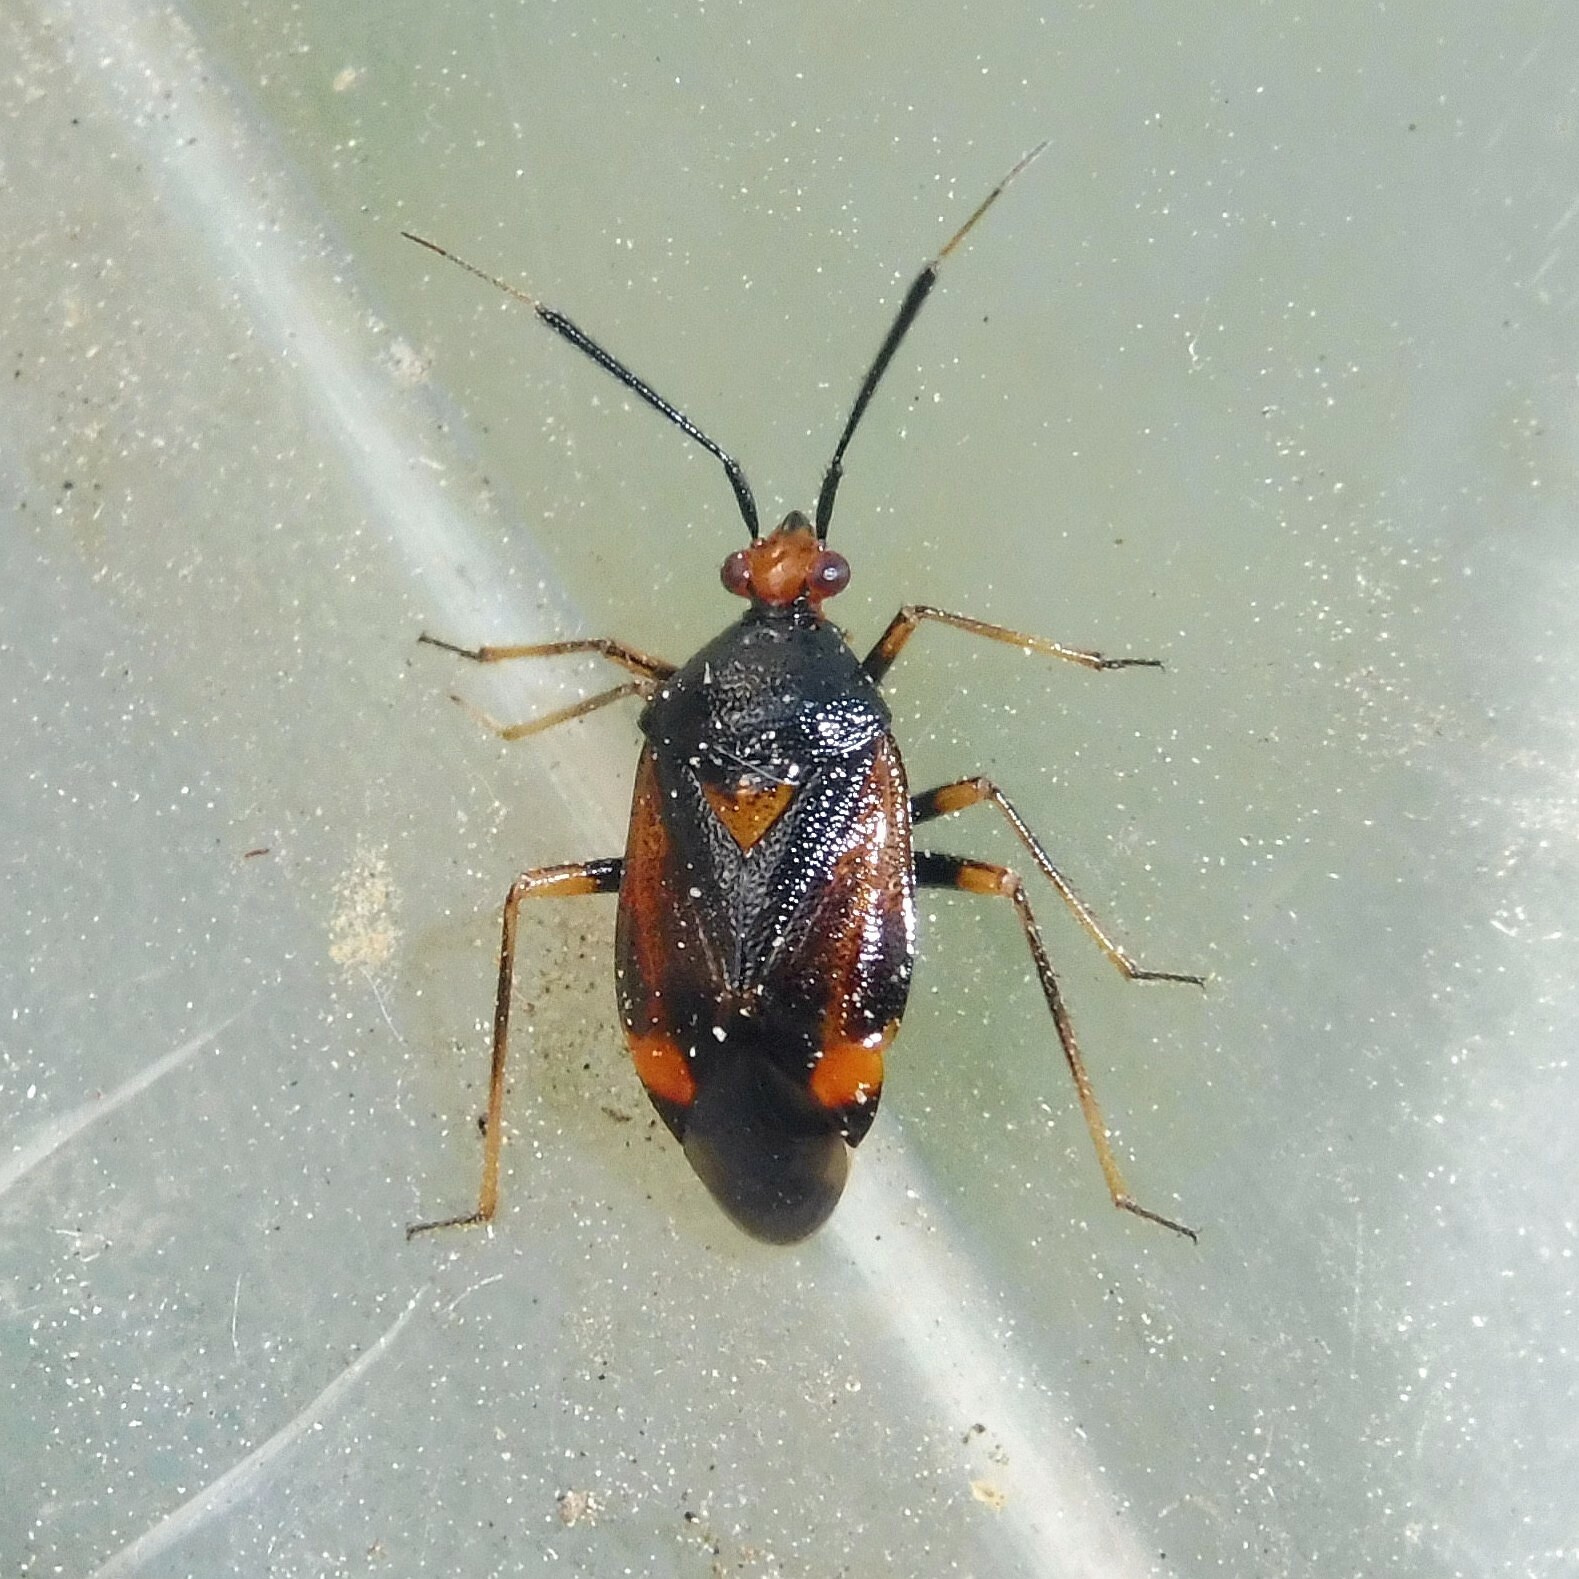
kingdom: Animalia
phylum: Arthropoda
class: Insecta
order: Hemiptera
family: Miridae
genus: Deraeocoris
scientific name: Deraeocoris ruber
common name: Plant bug
